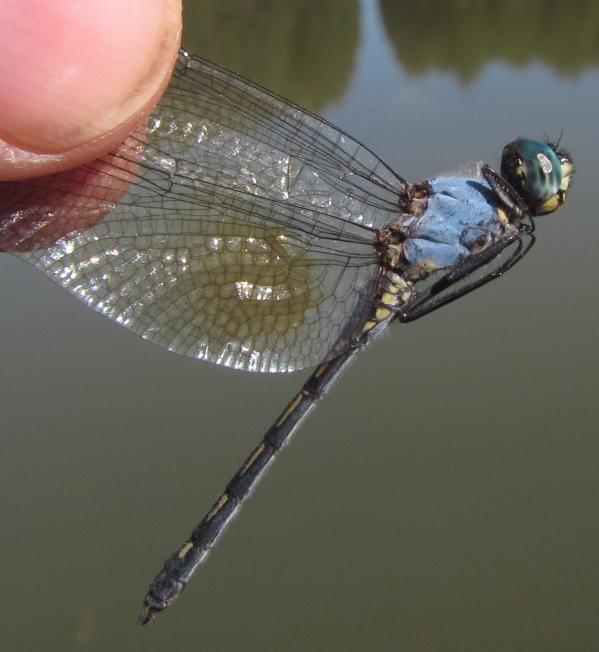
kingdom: Animalia
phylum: Arthropoda
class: Insecta
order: Odonata
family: Libellulidae
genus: Trithemis
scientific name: Trithemis stictica
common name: Jaunty dropwing
